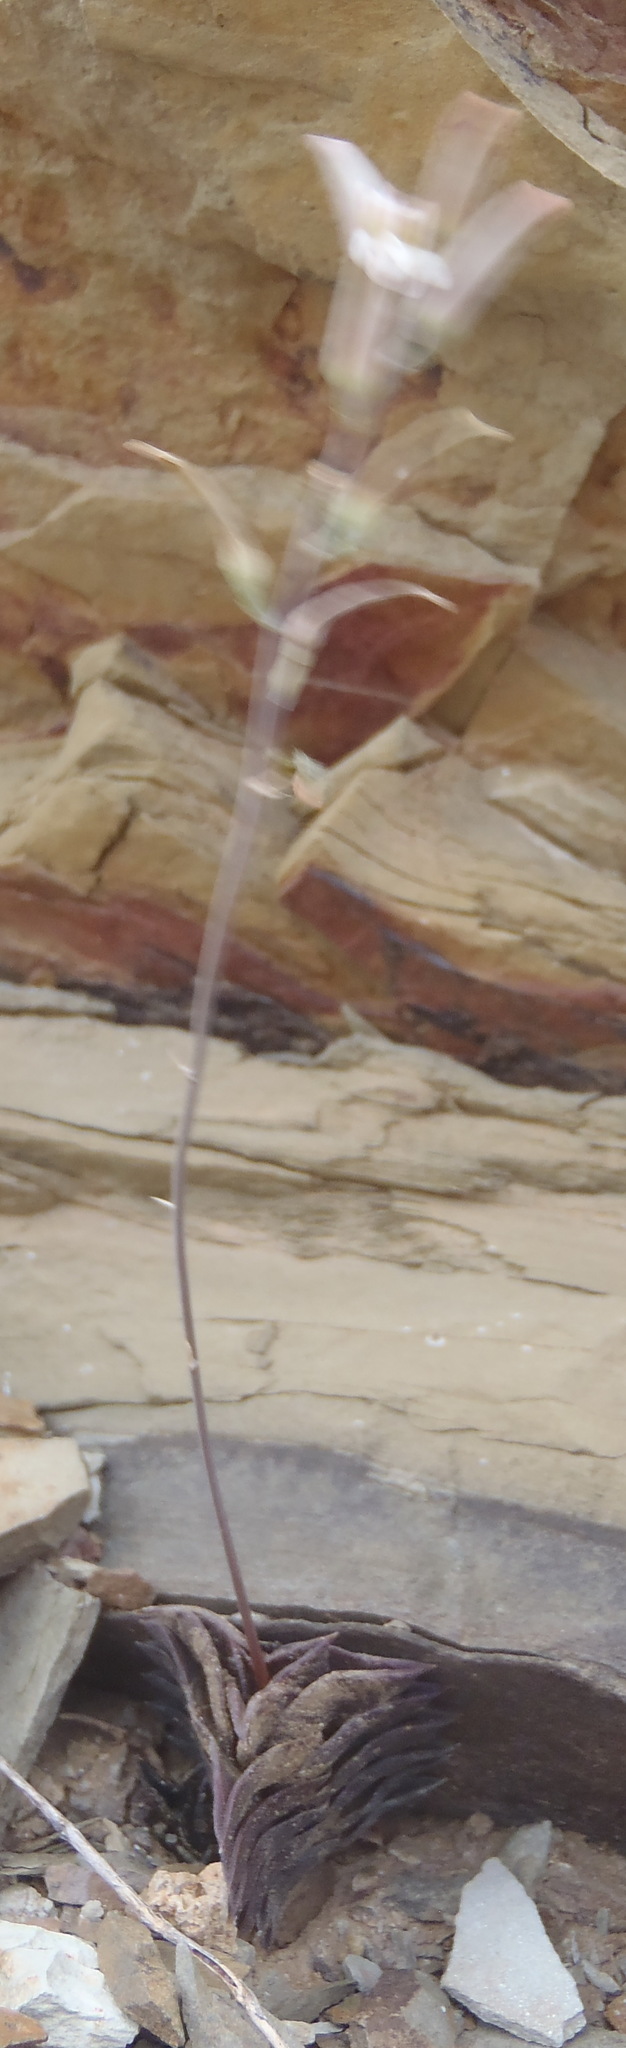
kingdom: Plantae
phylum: Tracheophyta
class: Liliopsida
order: Asparagales
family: Asphodelaceae
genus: Haworthiopsis
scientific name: Haworthiopsis viscosa
